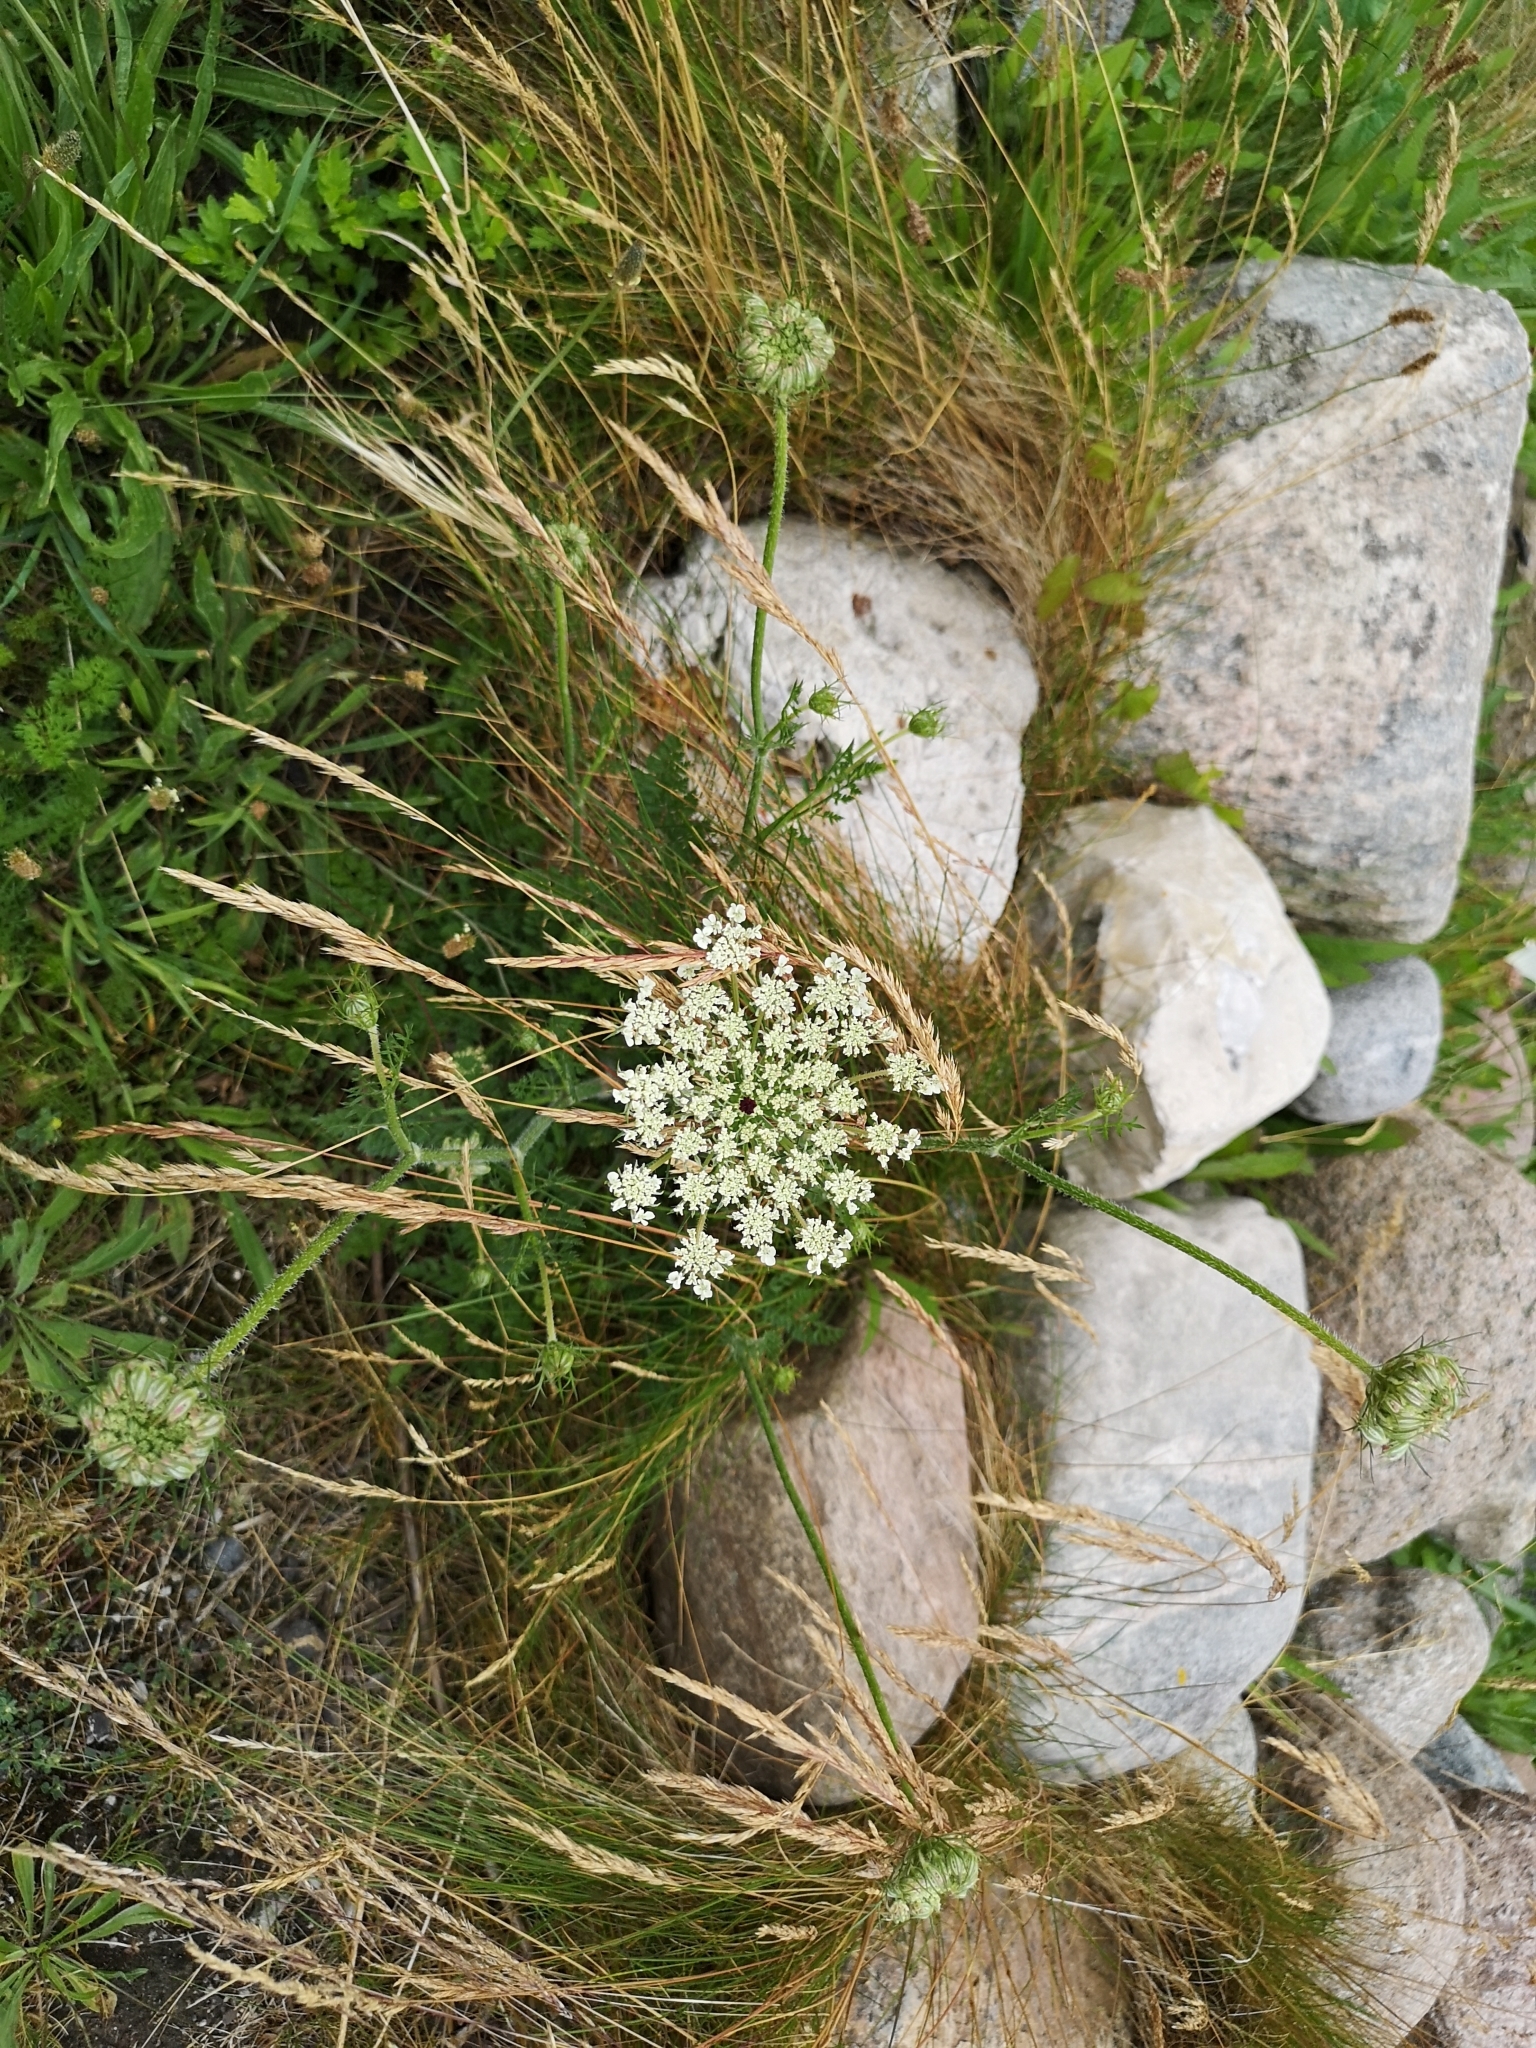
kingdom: Plantae
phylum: Tracheophyta
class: Magnoliopsida
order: Apiales
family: Apiaceae
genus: Daucus
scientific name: Daucus carota
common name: Wild carrot
